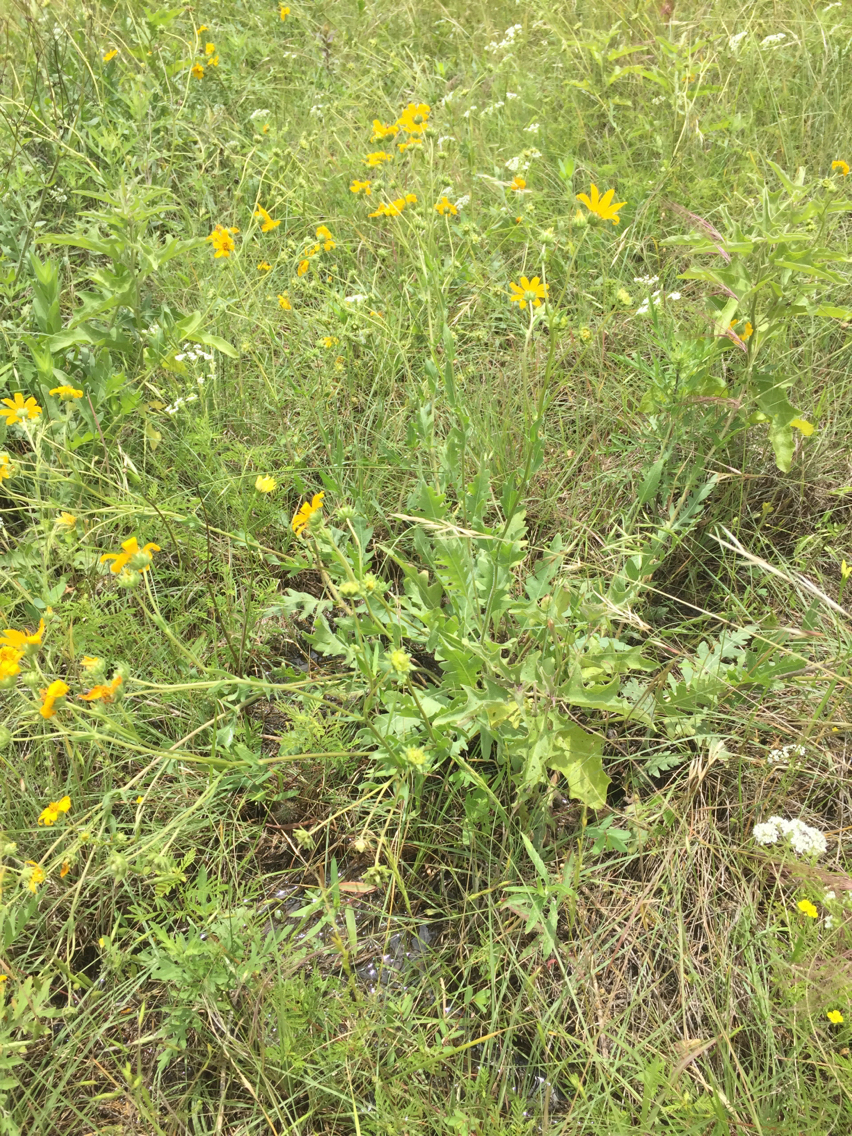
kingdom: Plantae
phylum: Tracheophyta
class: Magnoliopsida
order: Asterales
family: Asteraceae
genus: Engelmannia
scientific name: Engelmannia peristenia
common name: Engelmann's daisy
